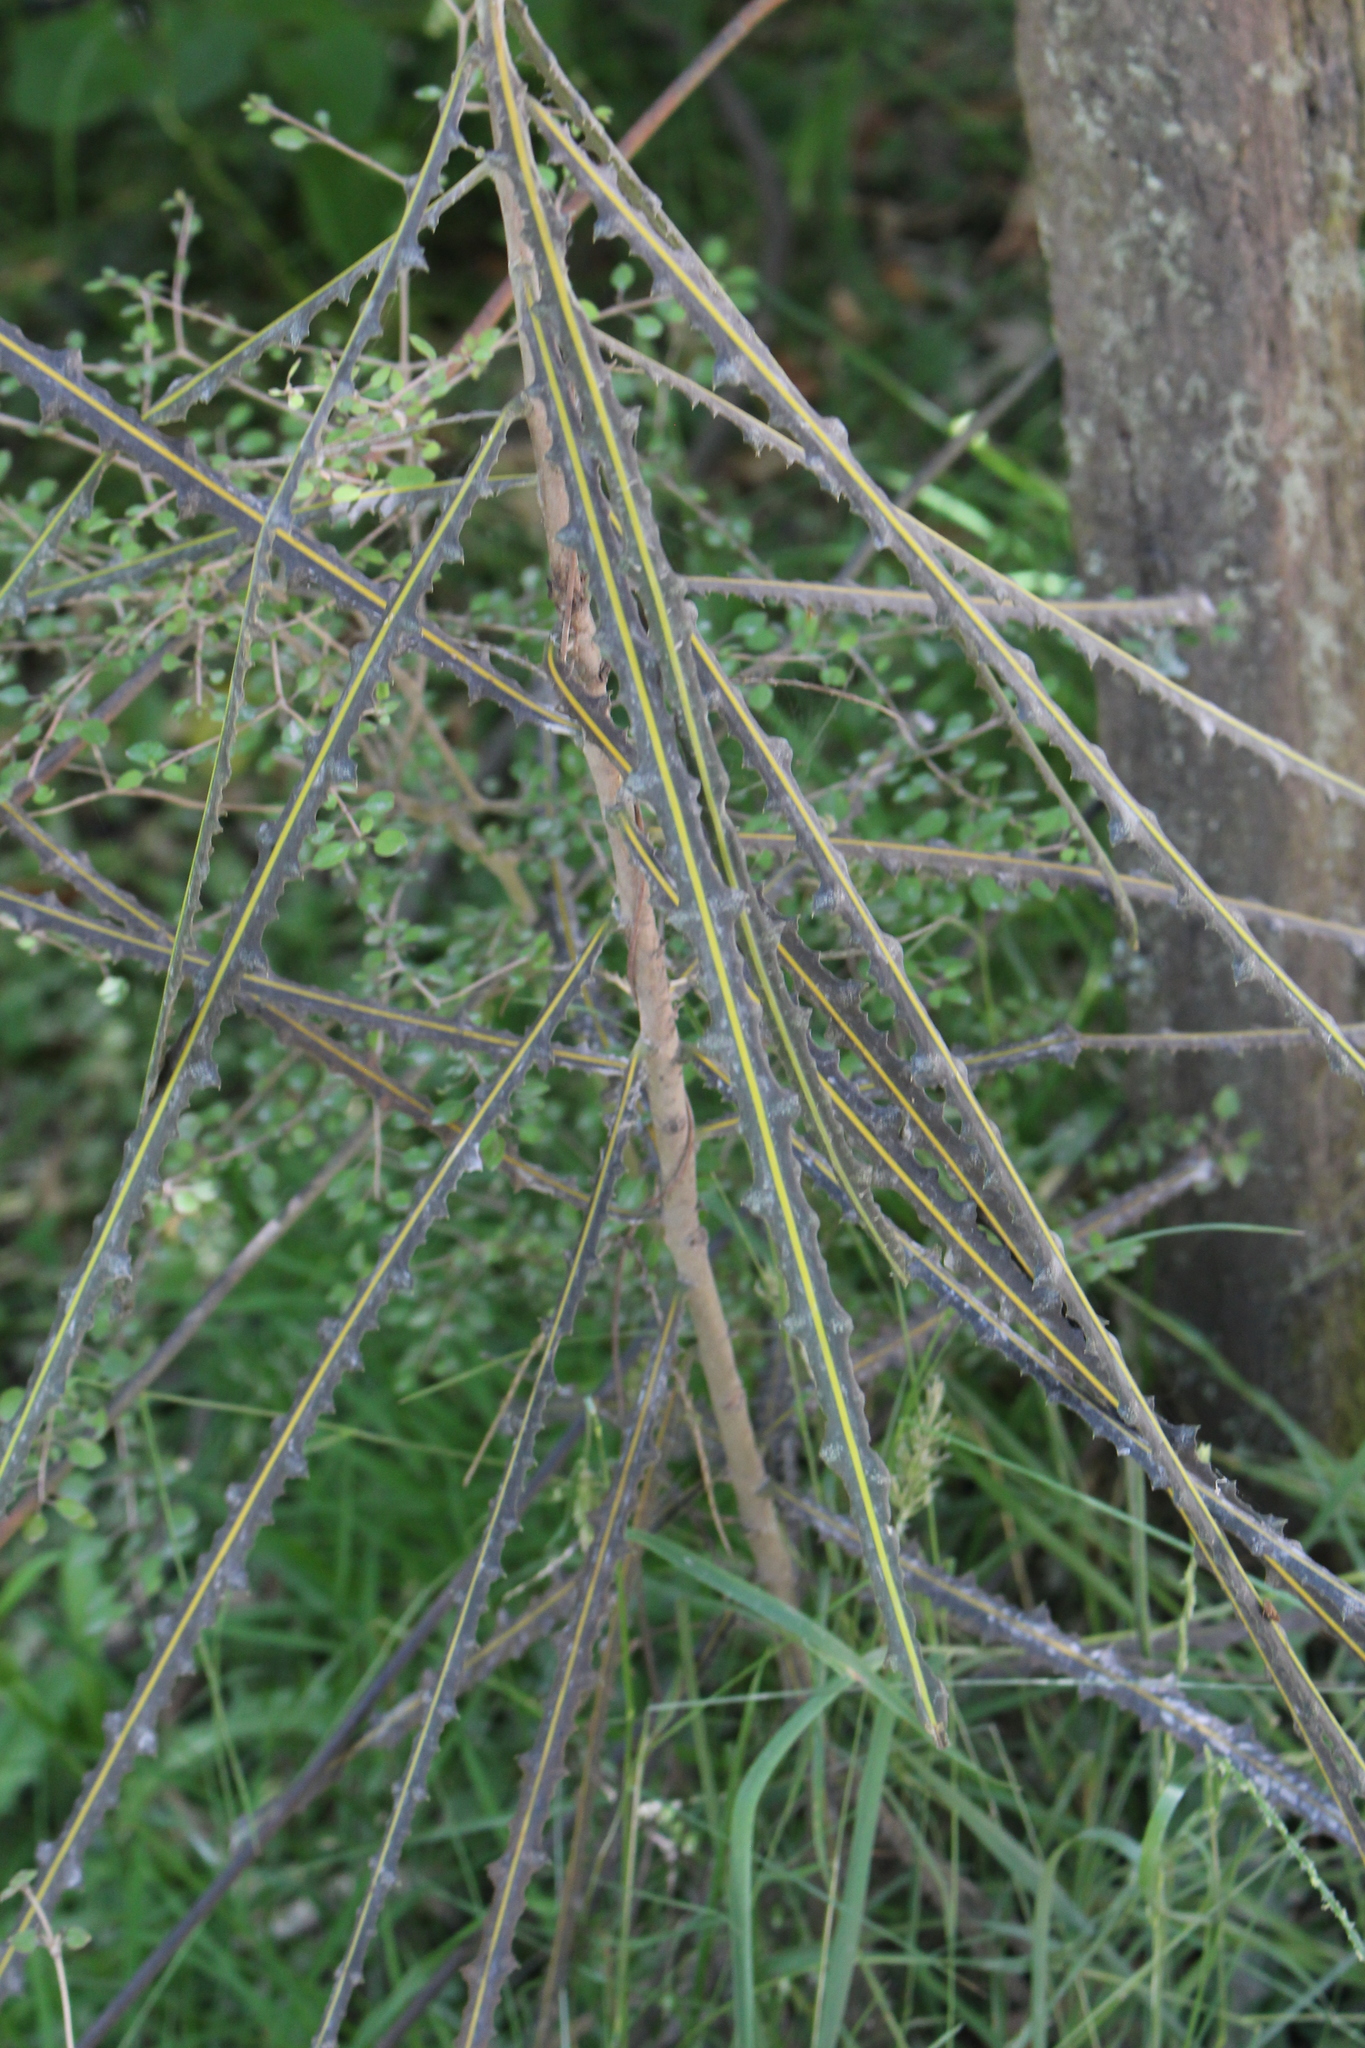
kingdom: Plantae
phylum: Tracheophyta
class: Magnoliopsida
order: Apiales
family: Araliaceae
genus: Pseudopanax
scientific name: Pseudopanax ferox
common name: Fierce lancewood
